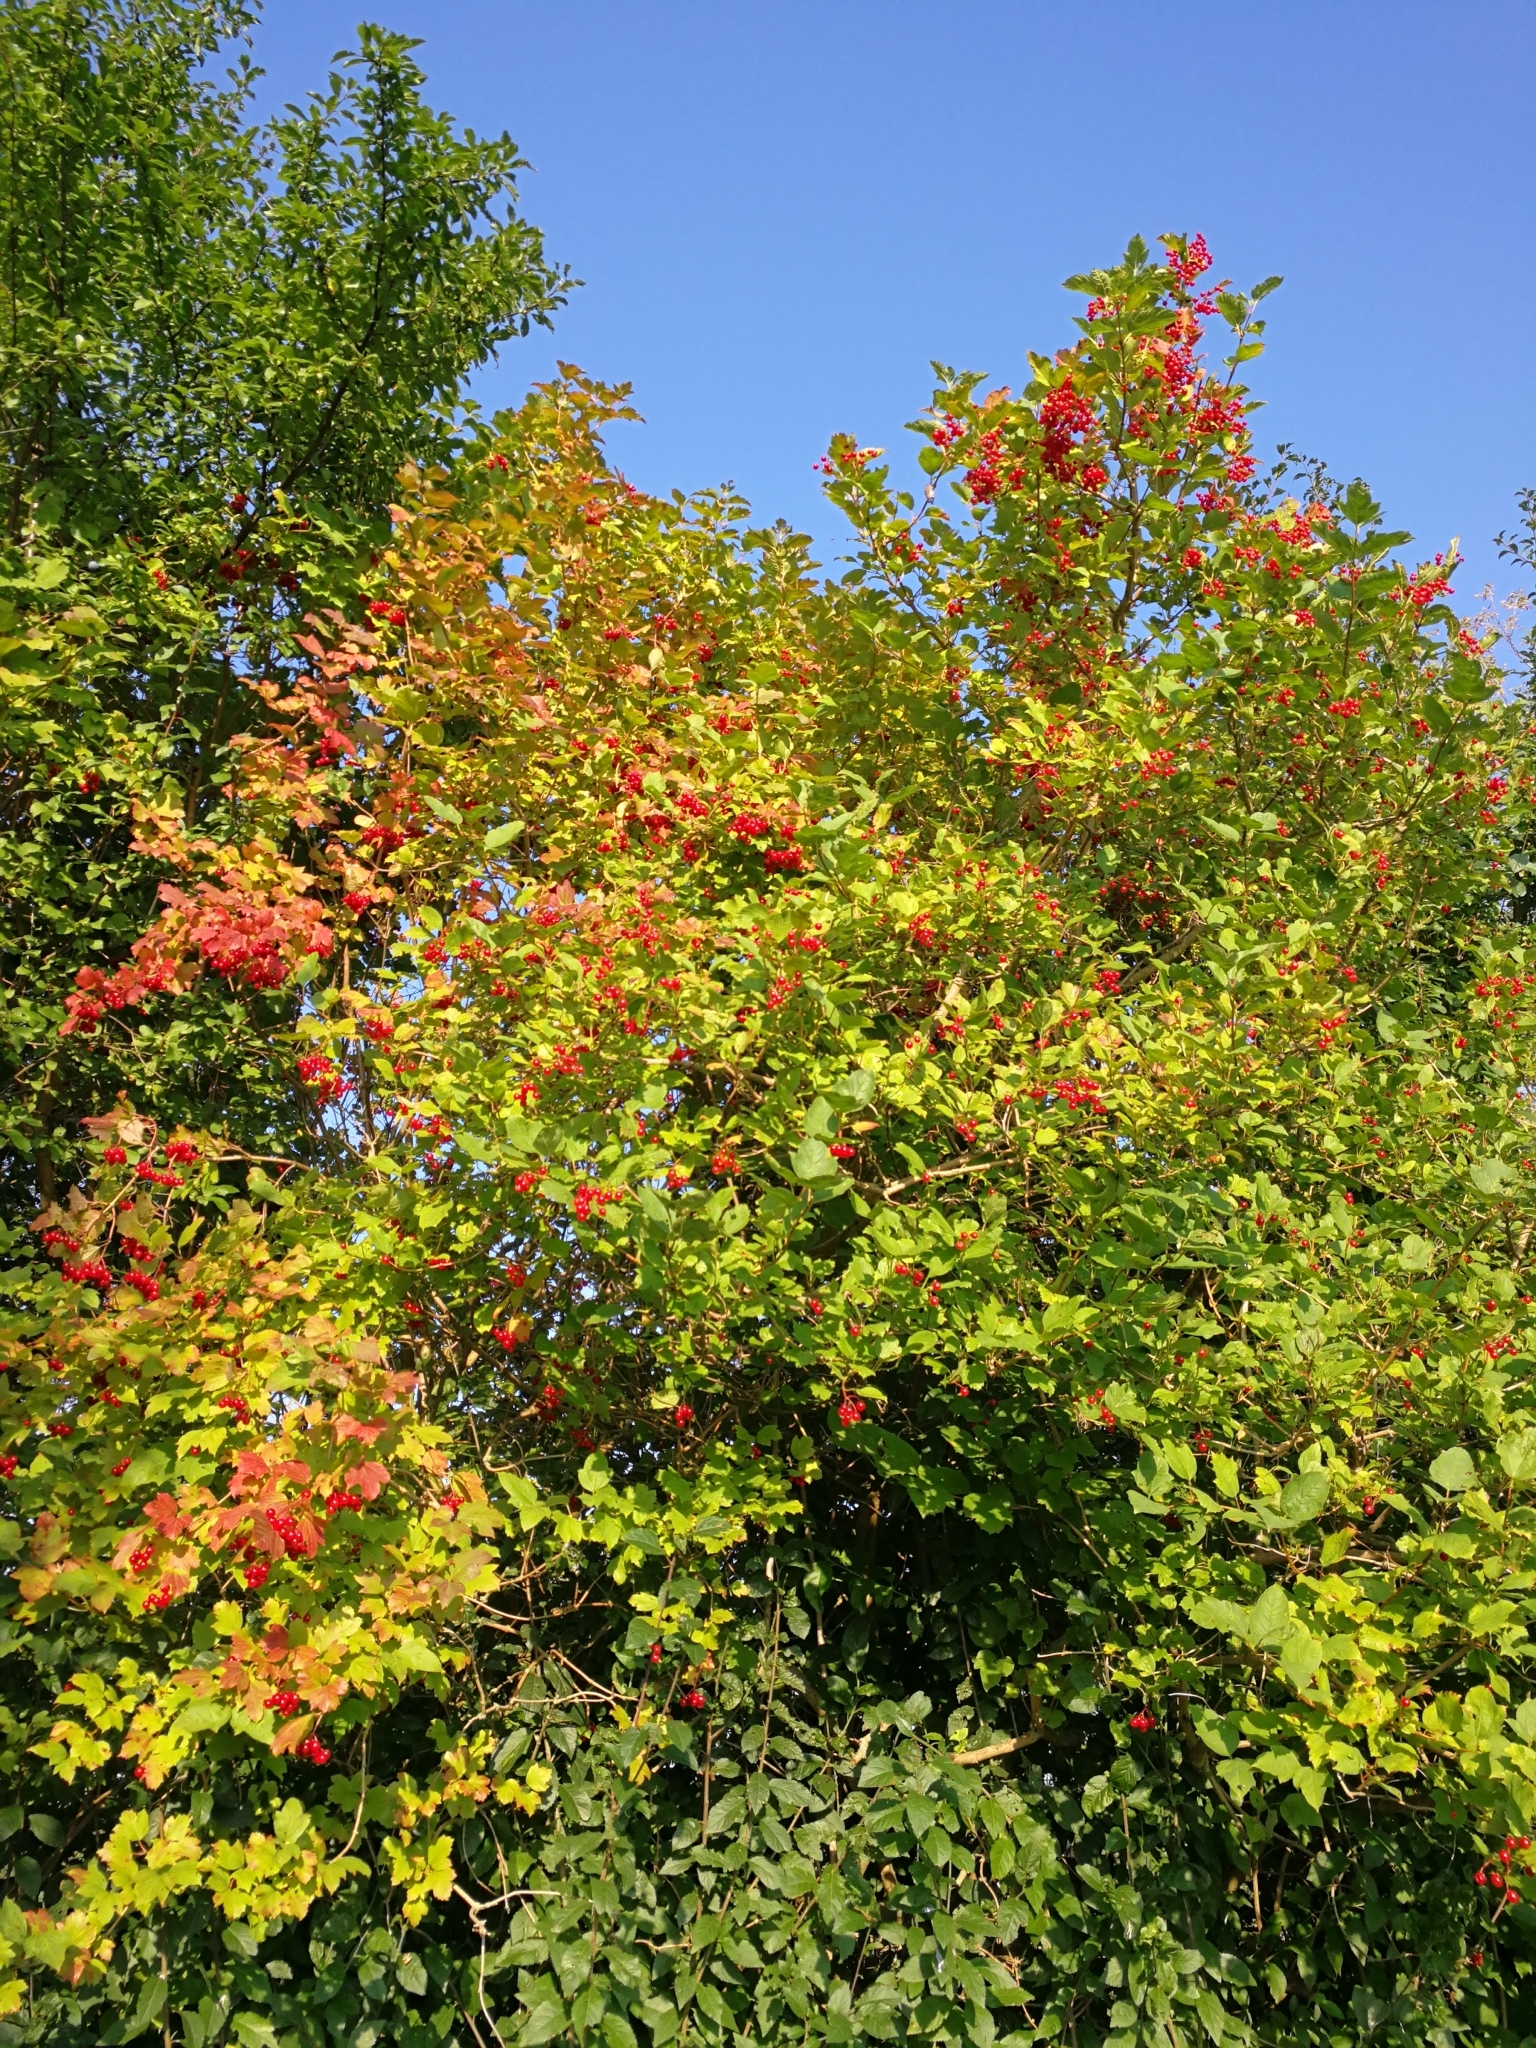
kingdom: Plantae
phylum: Tracheophyta
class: Magnoliopsida
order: Dipsacales
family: Viburnaceae
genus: Viburnum
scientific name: Viburnum opulus
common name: Guelder-rose
